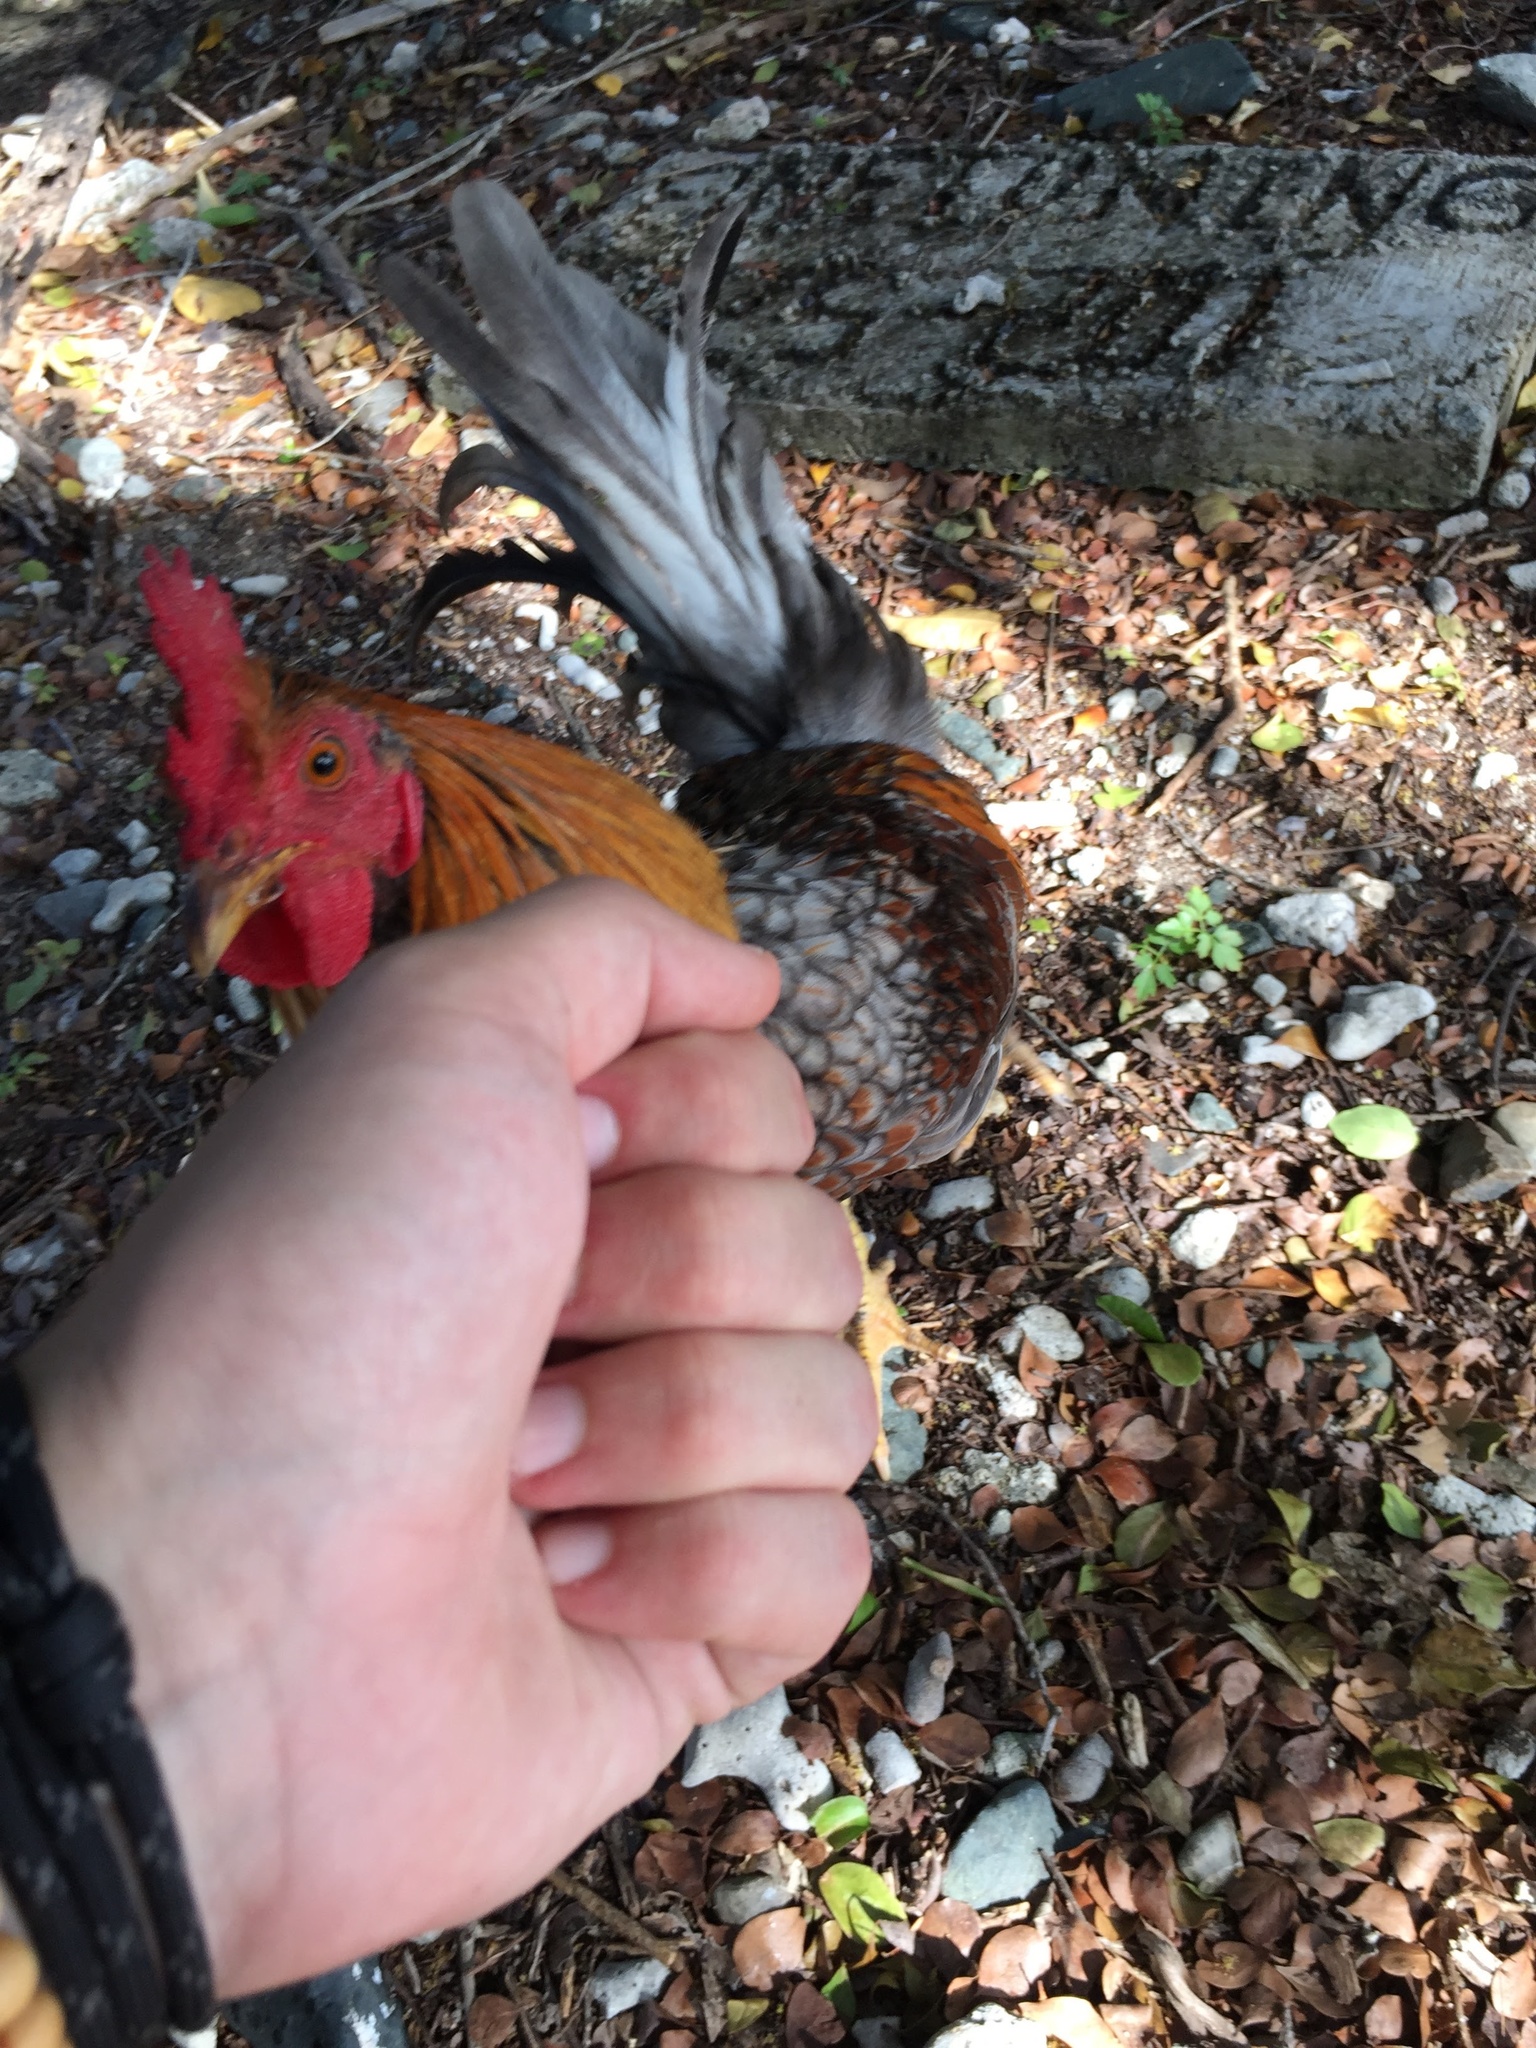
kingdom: Animalia
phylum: Chordata
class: Aves
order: Galliformes
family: Phasianidae
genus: Gallus
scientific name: Gallus gallus
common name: Red junglefowl
